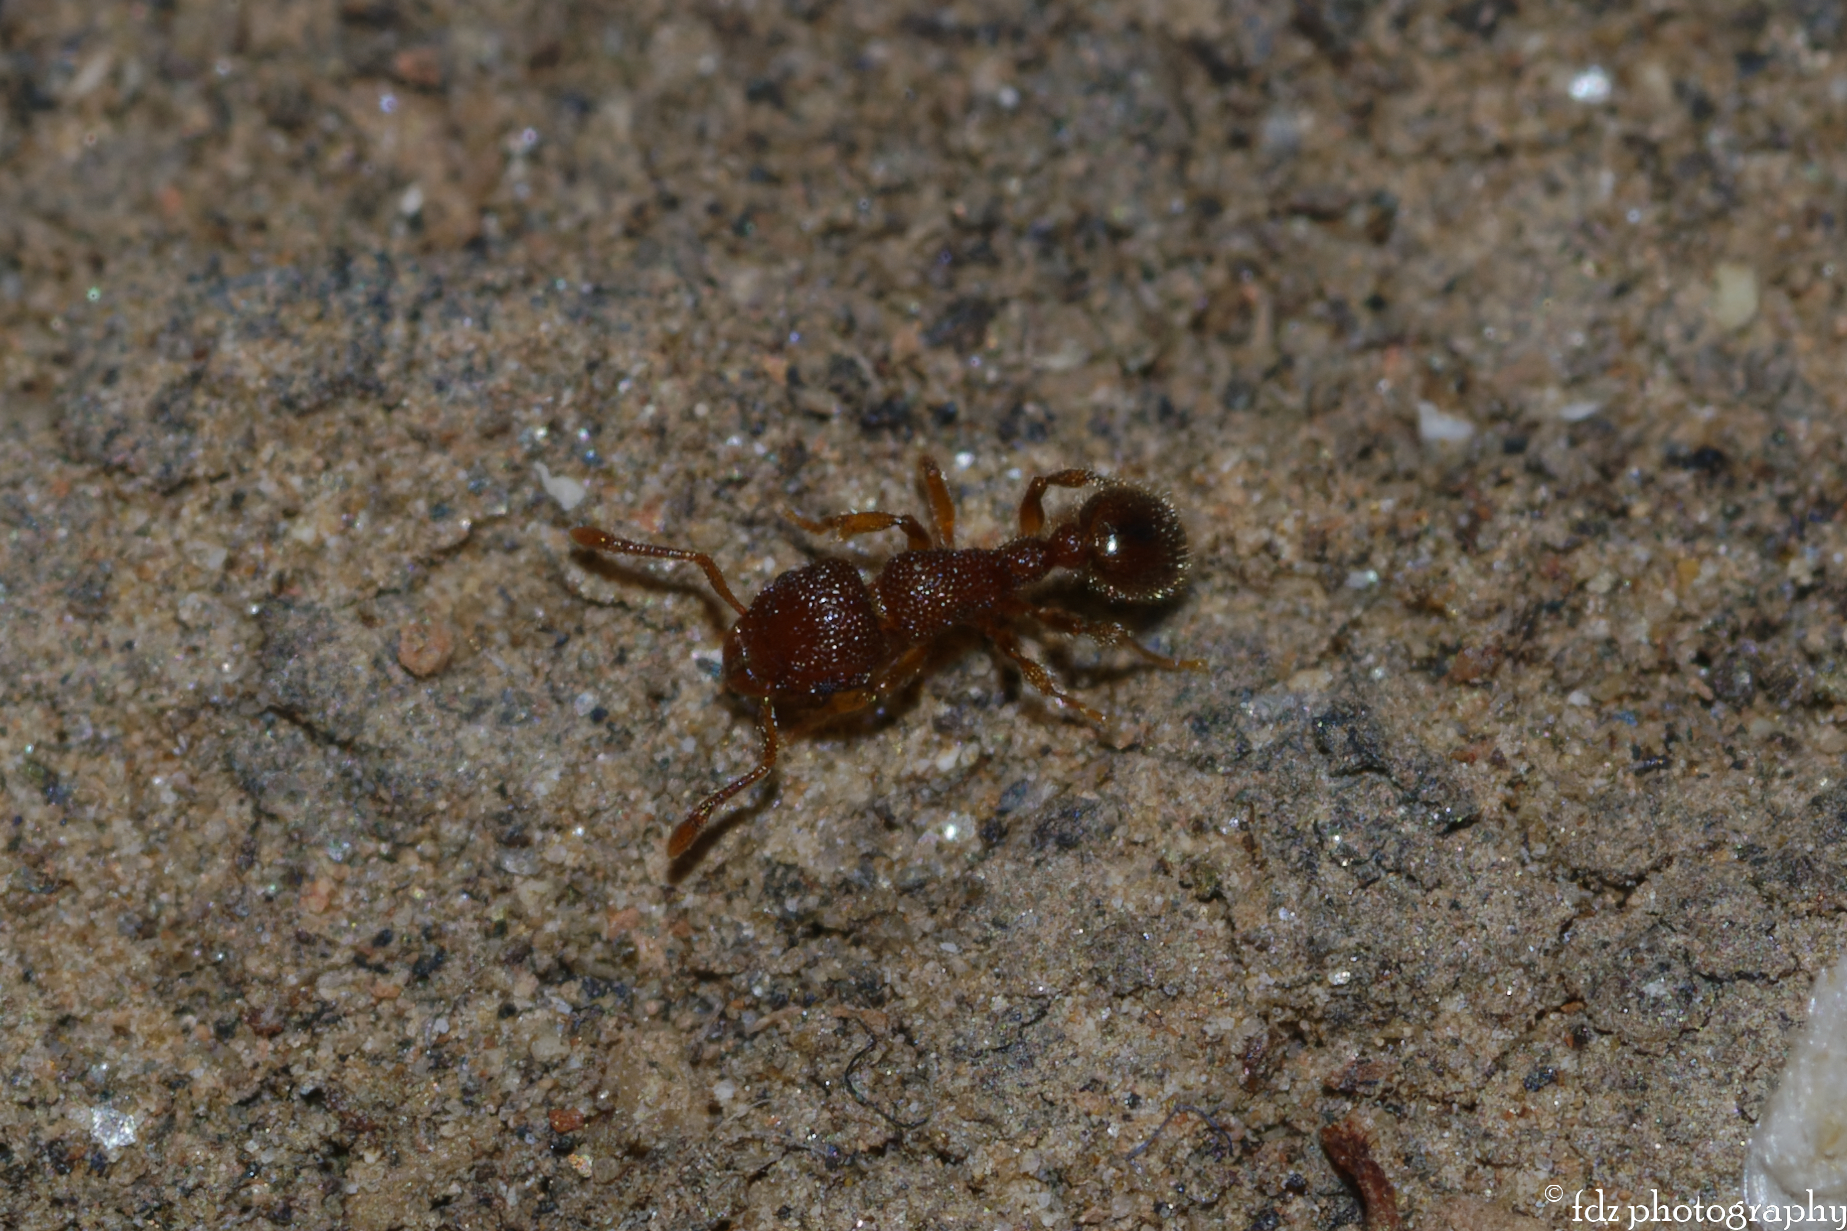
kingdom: Animalia
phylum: Arthropoda
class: Insecta
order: Hymenoptera
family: Formicidae
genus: Tetramorium
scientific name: Tetramorium lanuginosum
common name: Ant
